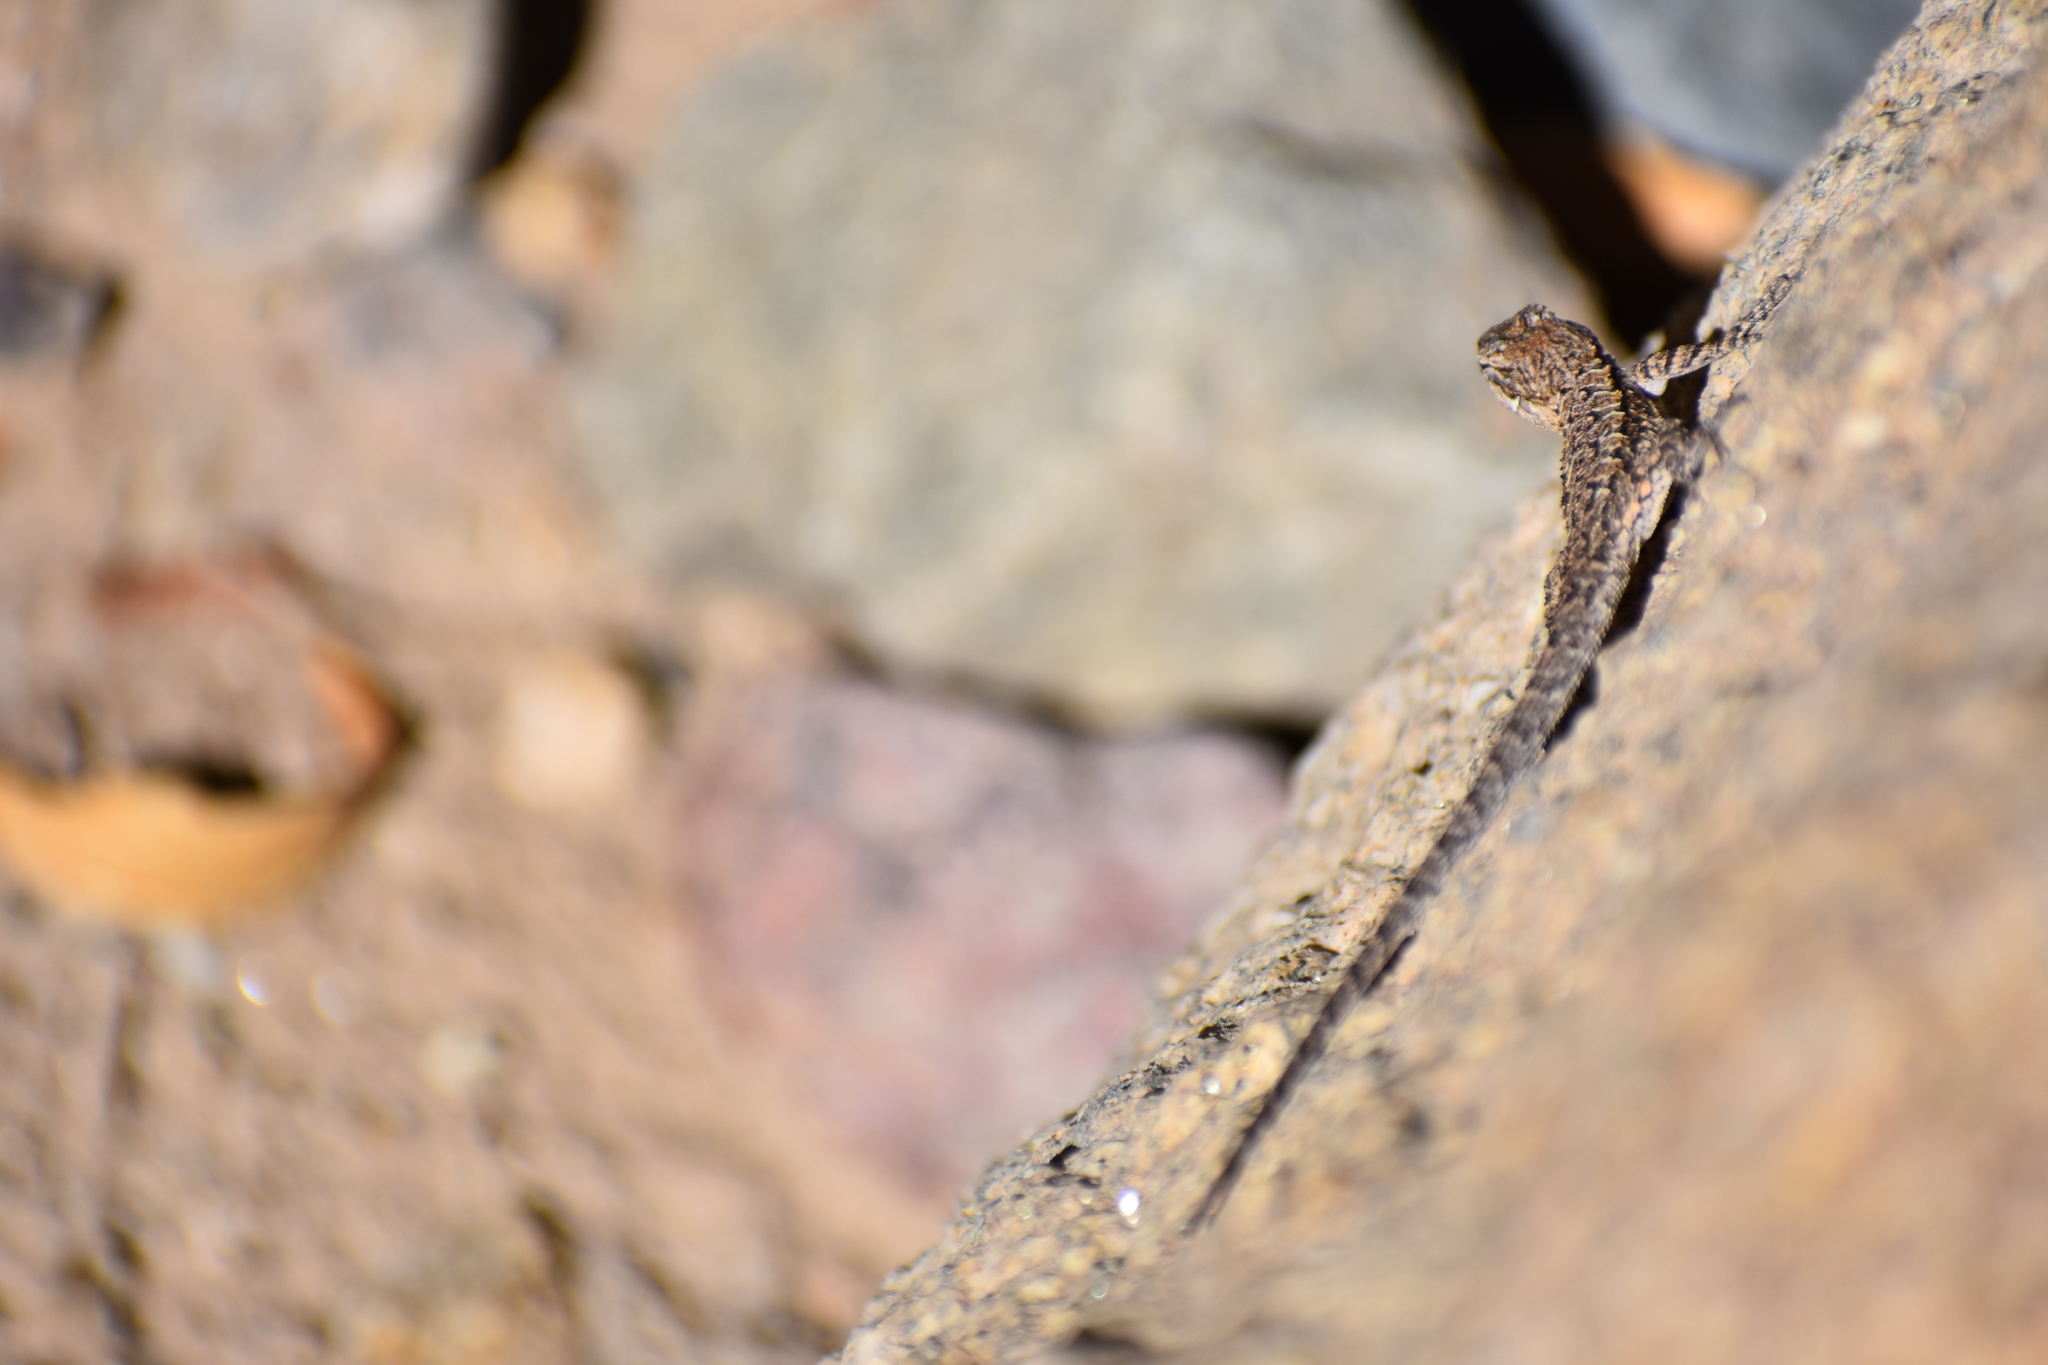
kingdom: Animalia
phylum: Chordata
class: Squamata
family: Phrynosomatidae
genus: Urosaurus
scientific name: Urosaurus ornatus
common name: Ornate tree lizard
